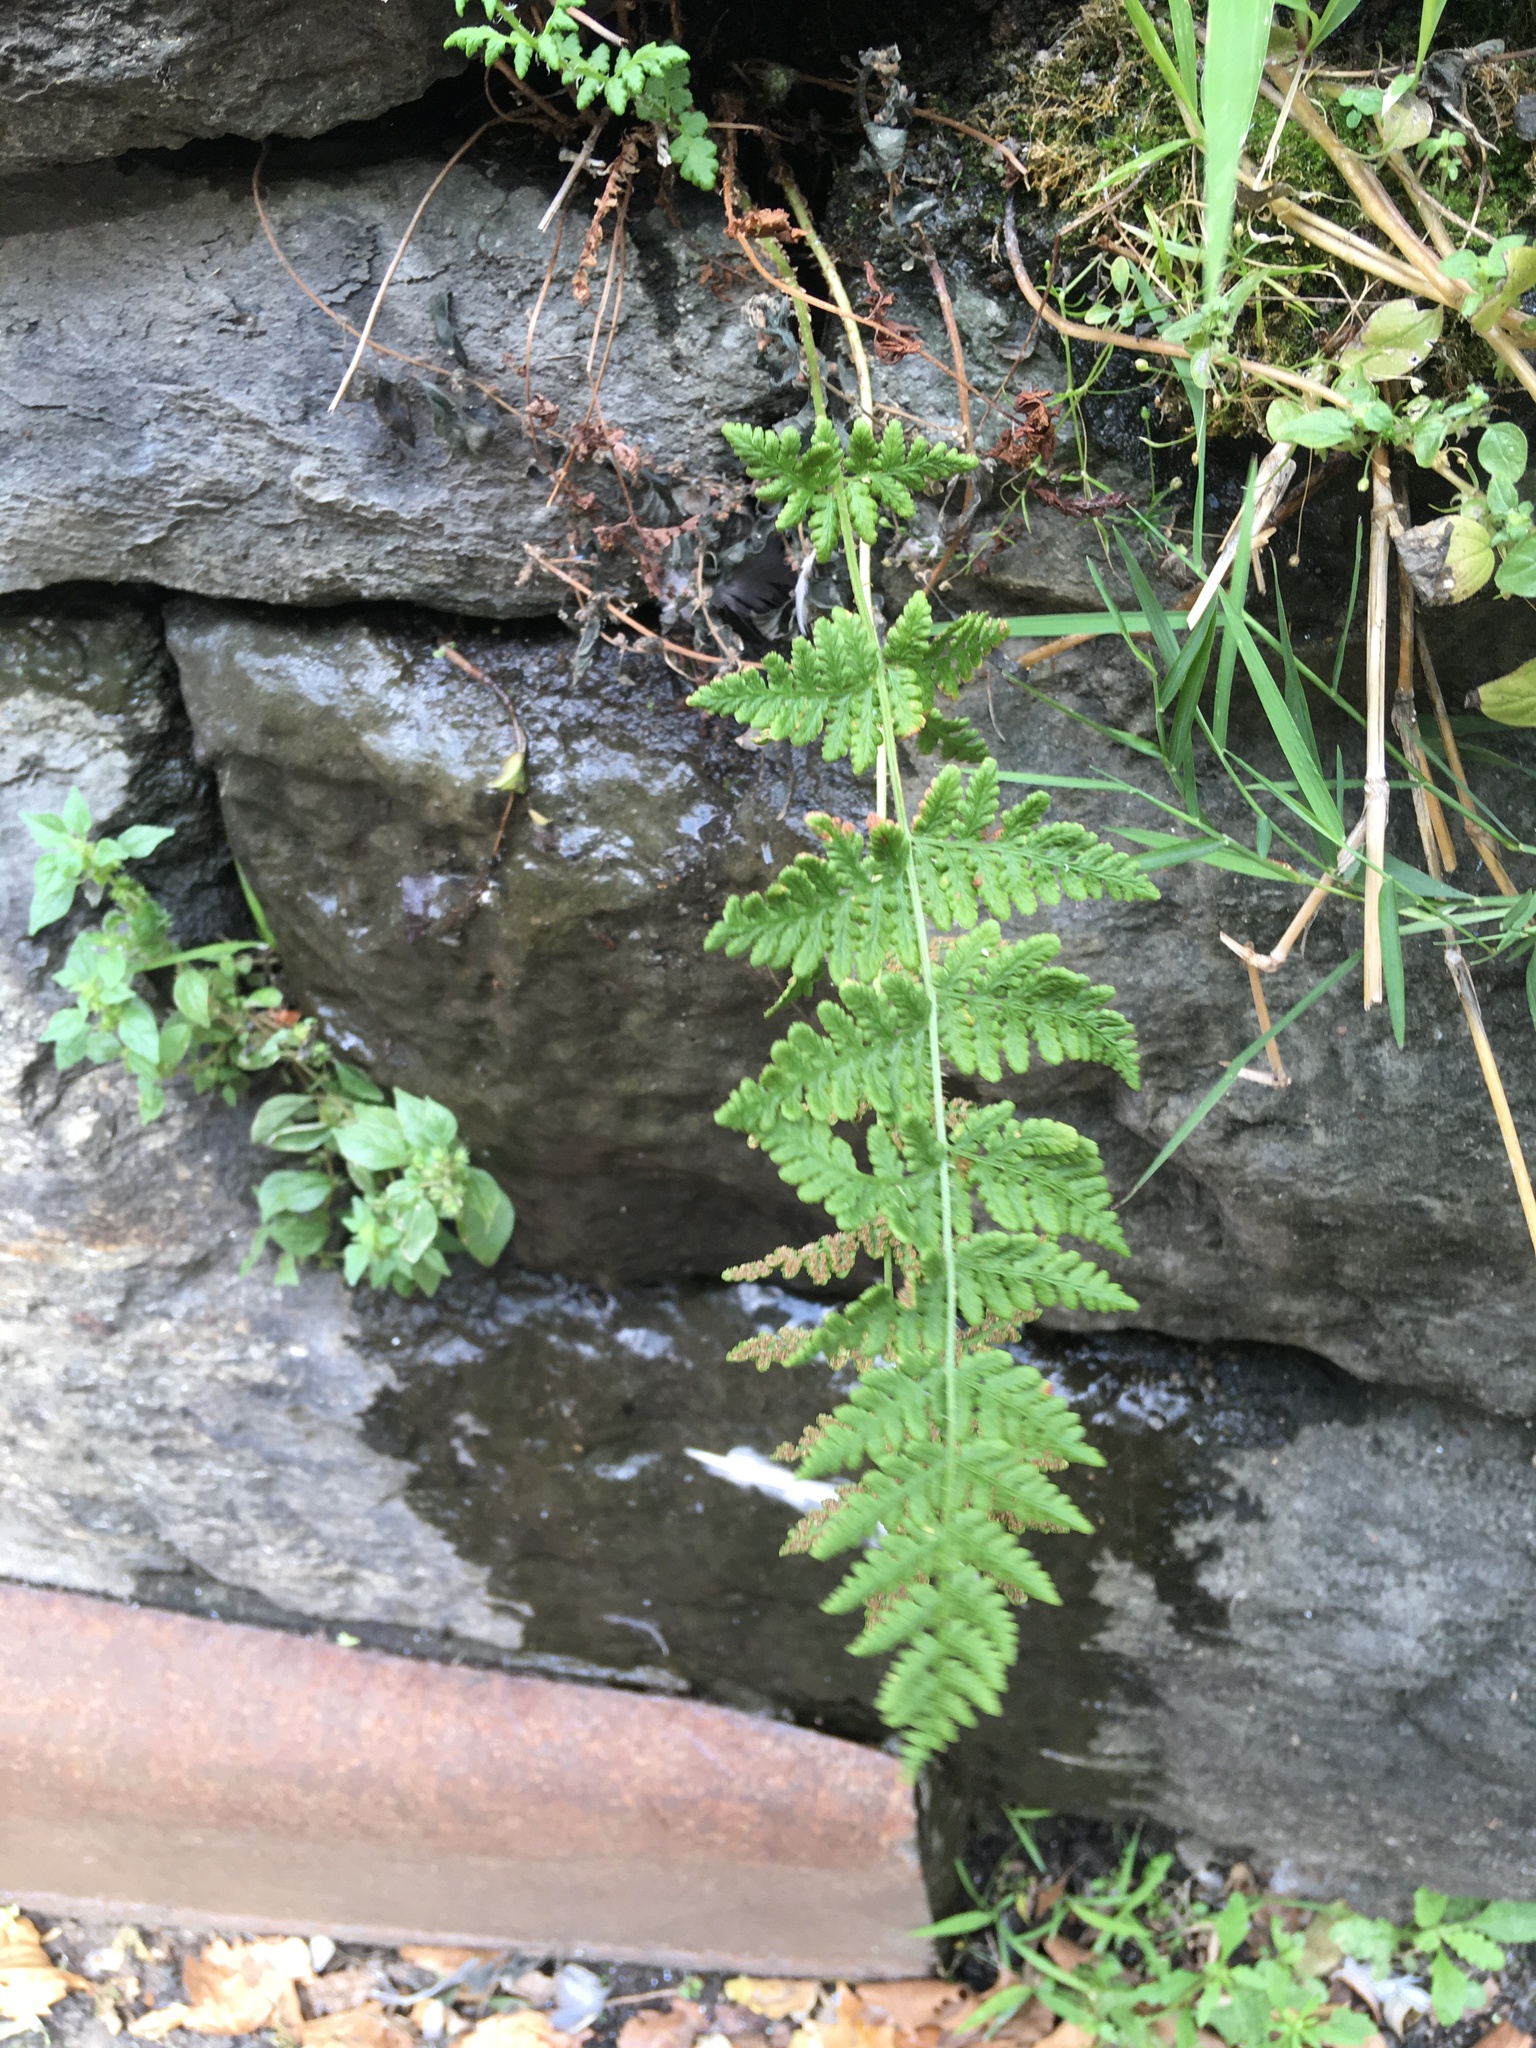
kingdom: Plantae
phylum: Tracheophyta
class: Polypodiopsida
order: Polypodiales
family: Woodsiaceae
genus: Physematium
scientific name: Physematium obtusum
